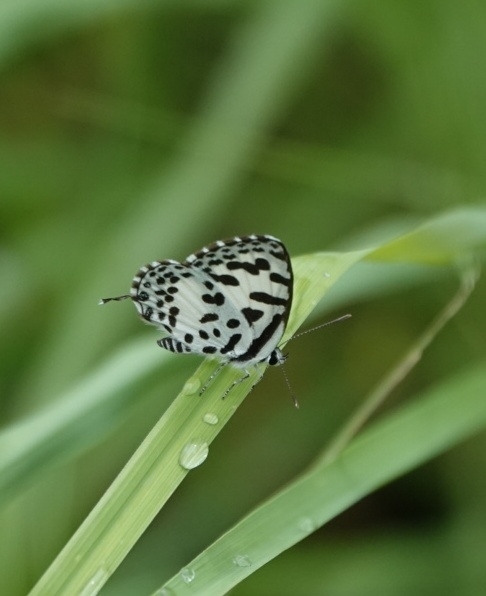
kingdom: Animalia
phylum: Arthropoda
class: Insecta
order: Lepidoptera
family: Lycaenidae
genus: Castalius
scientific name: Castalius rosimon
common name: Common pierrot
